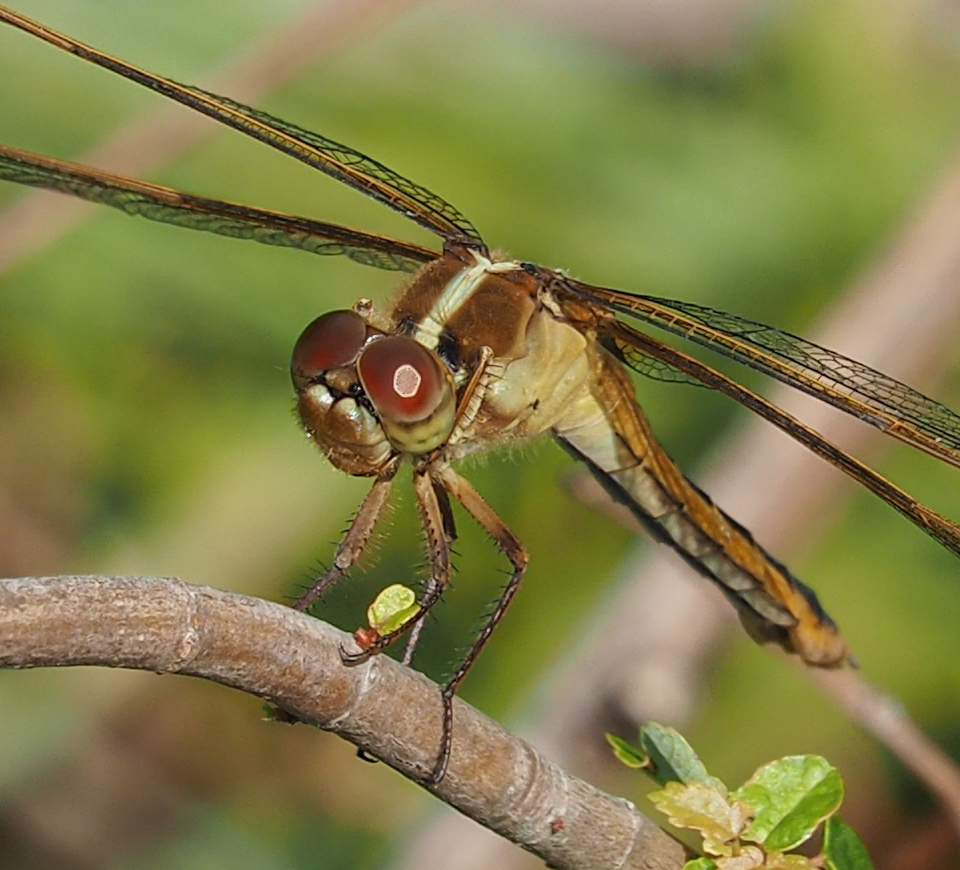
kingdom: Animalia
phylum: Arthropoda
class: Insecta
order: Odonata
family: Libellulidae
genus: Libellula
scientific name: Libellula needhami
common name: Needham's skimmer
